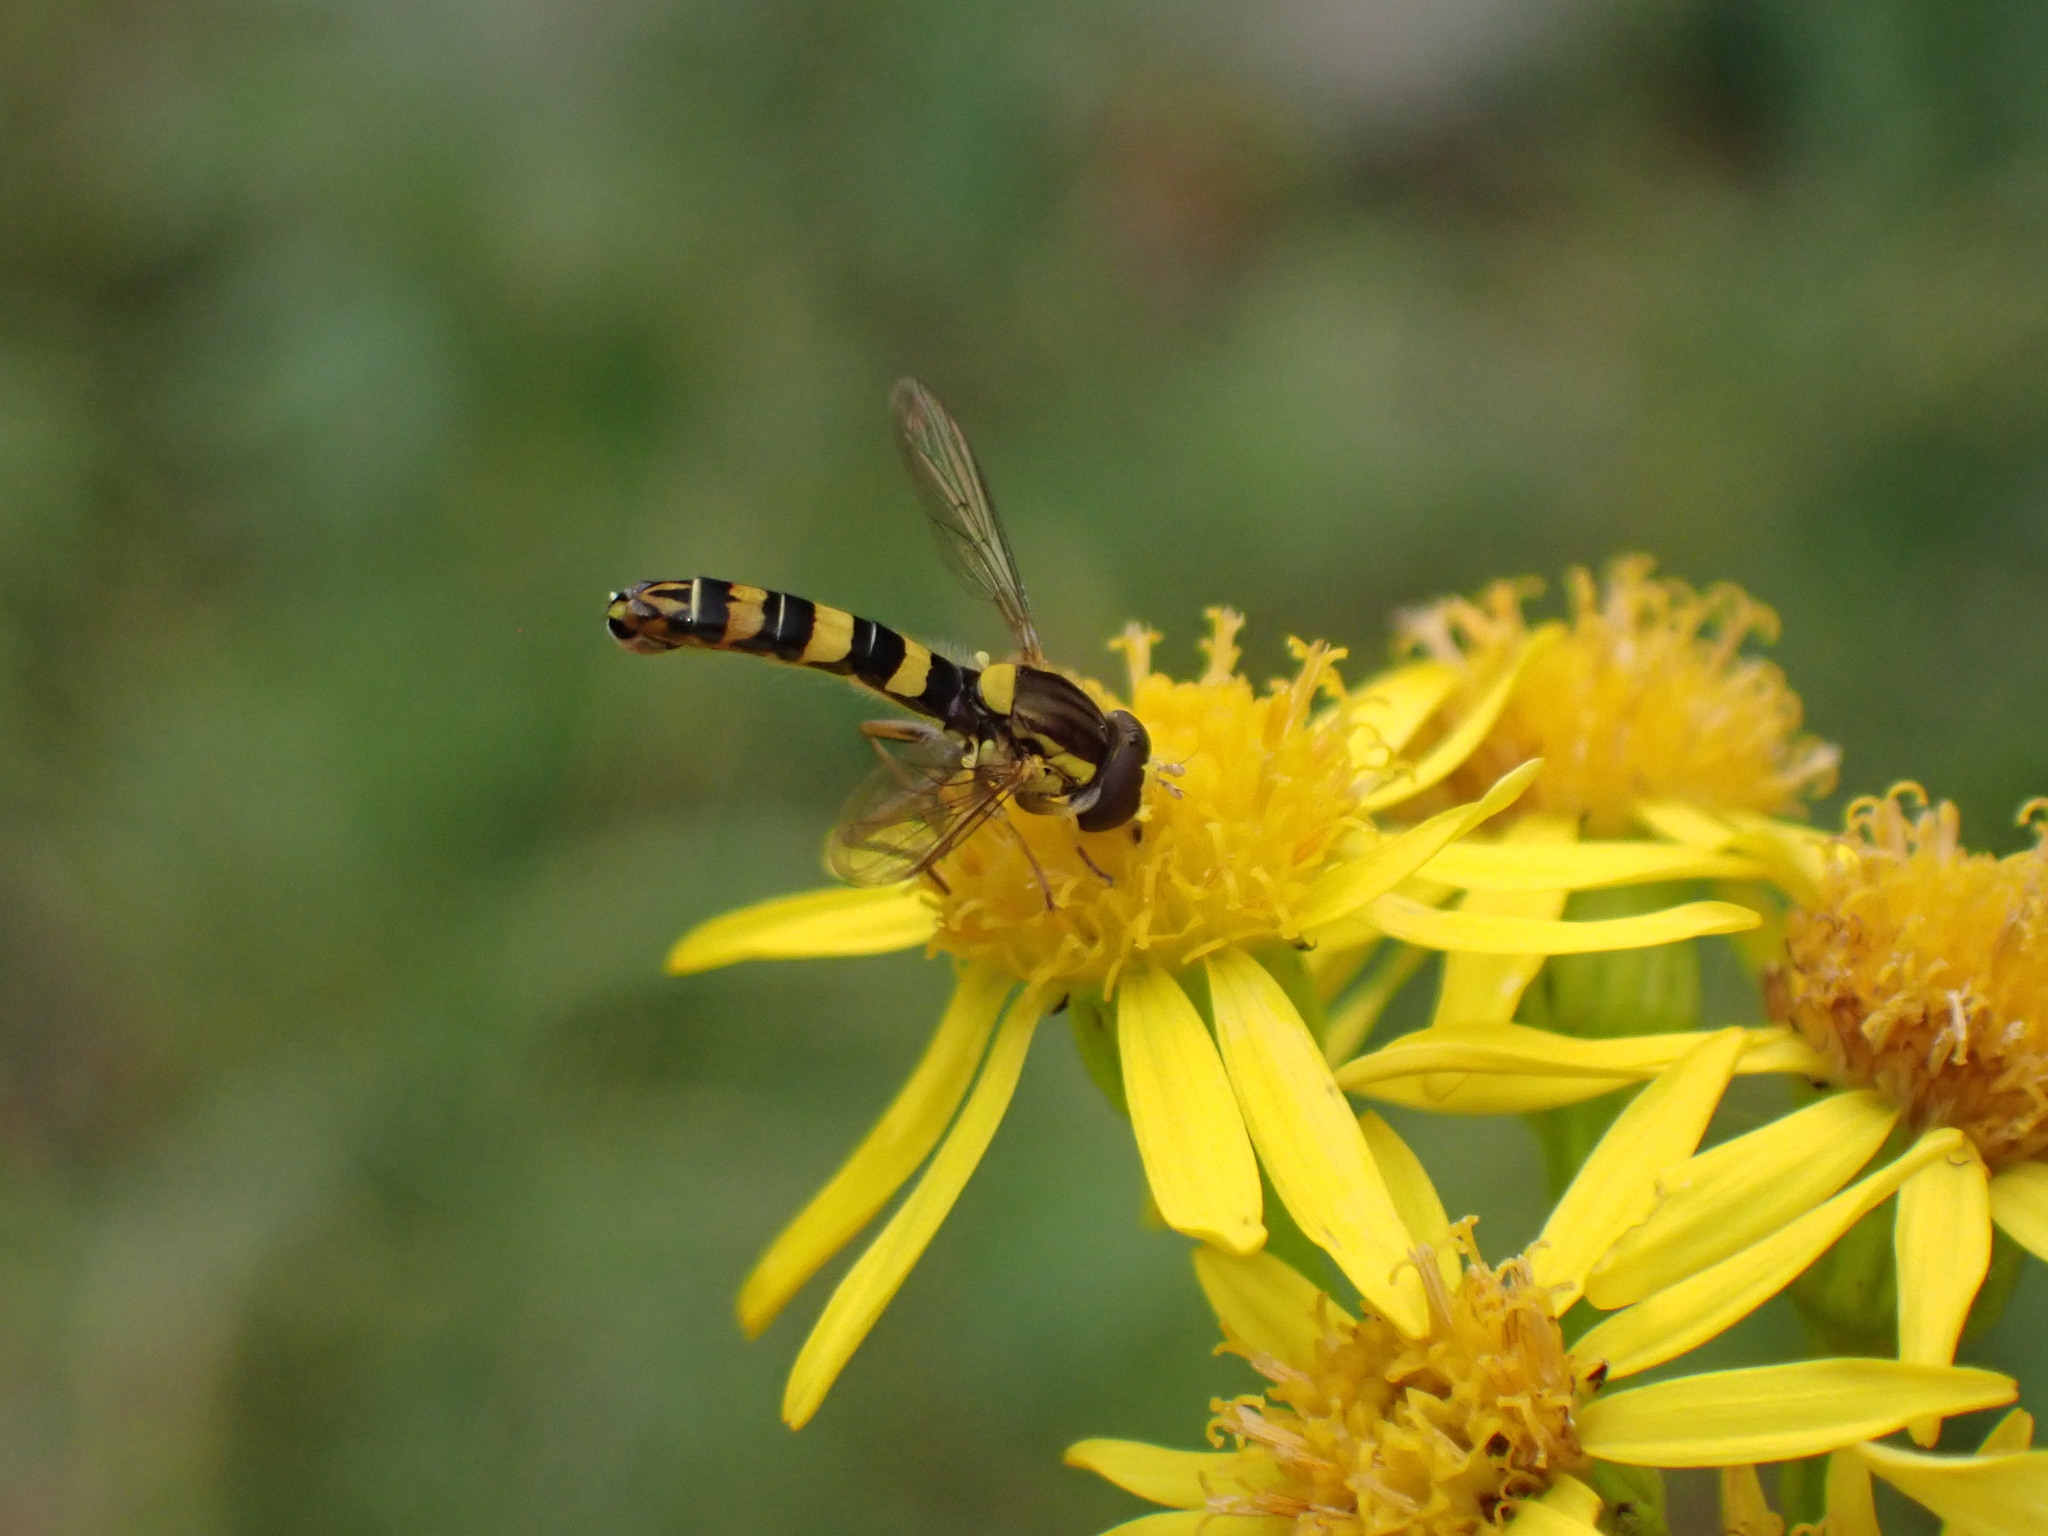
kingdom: Animalia
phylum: Arthropoda
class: Insecta
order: Diptera
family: Syrphidae
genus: Sphaerophoria
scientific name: Sphaerophoria scripta
